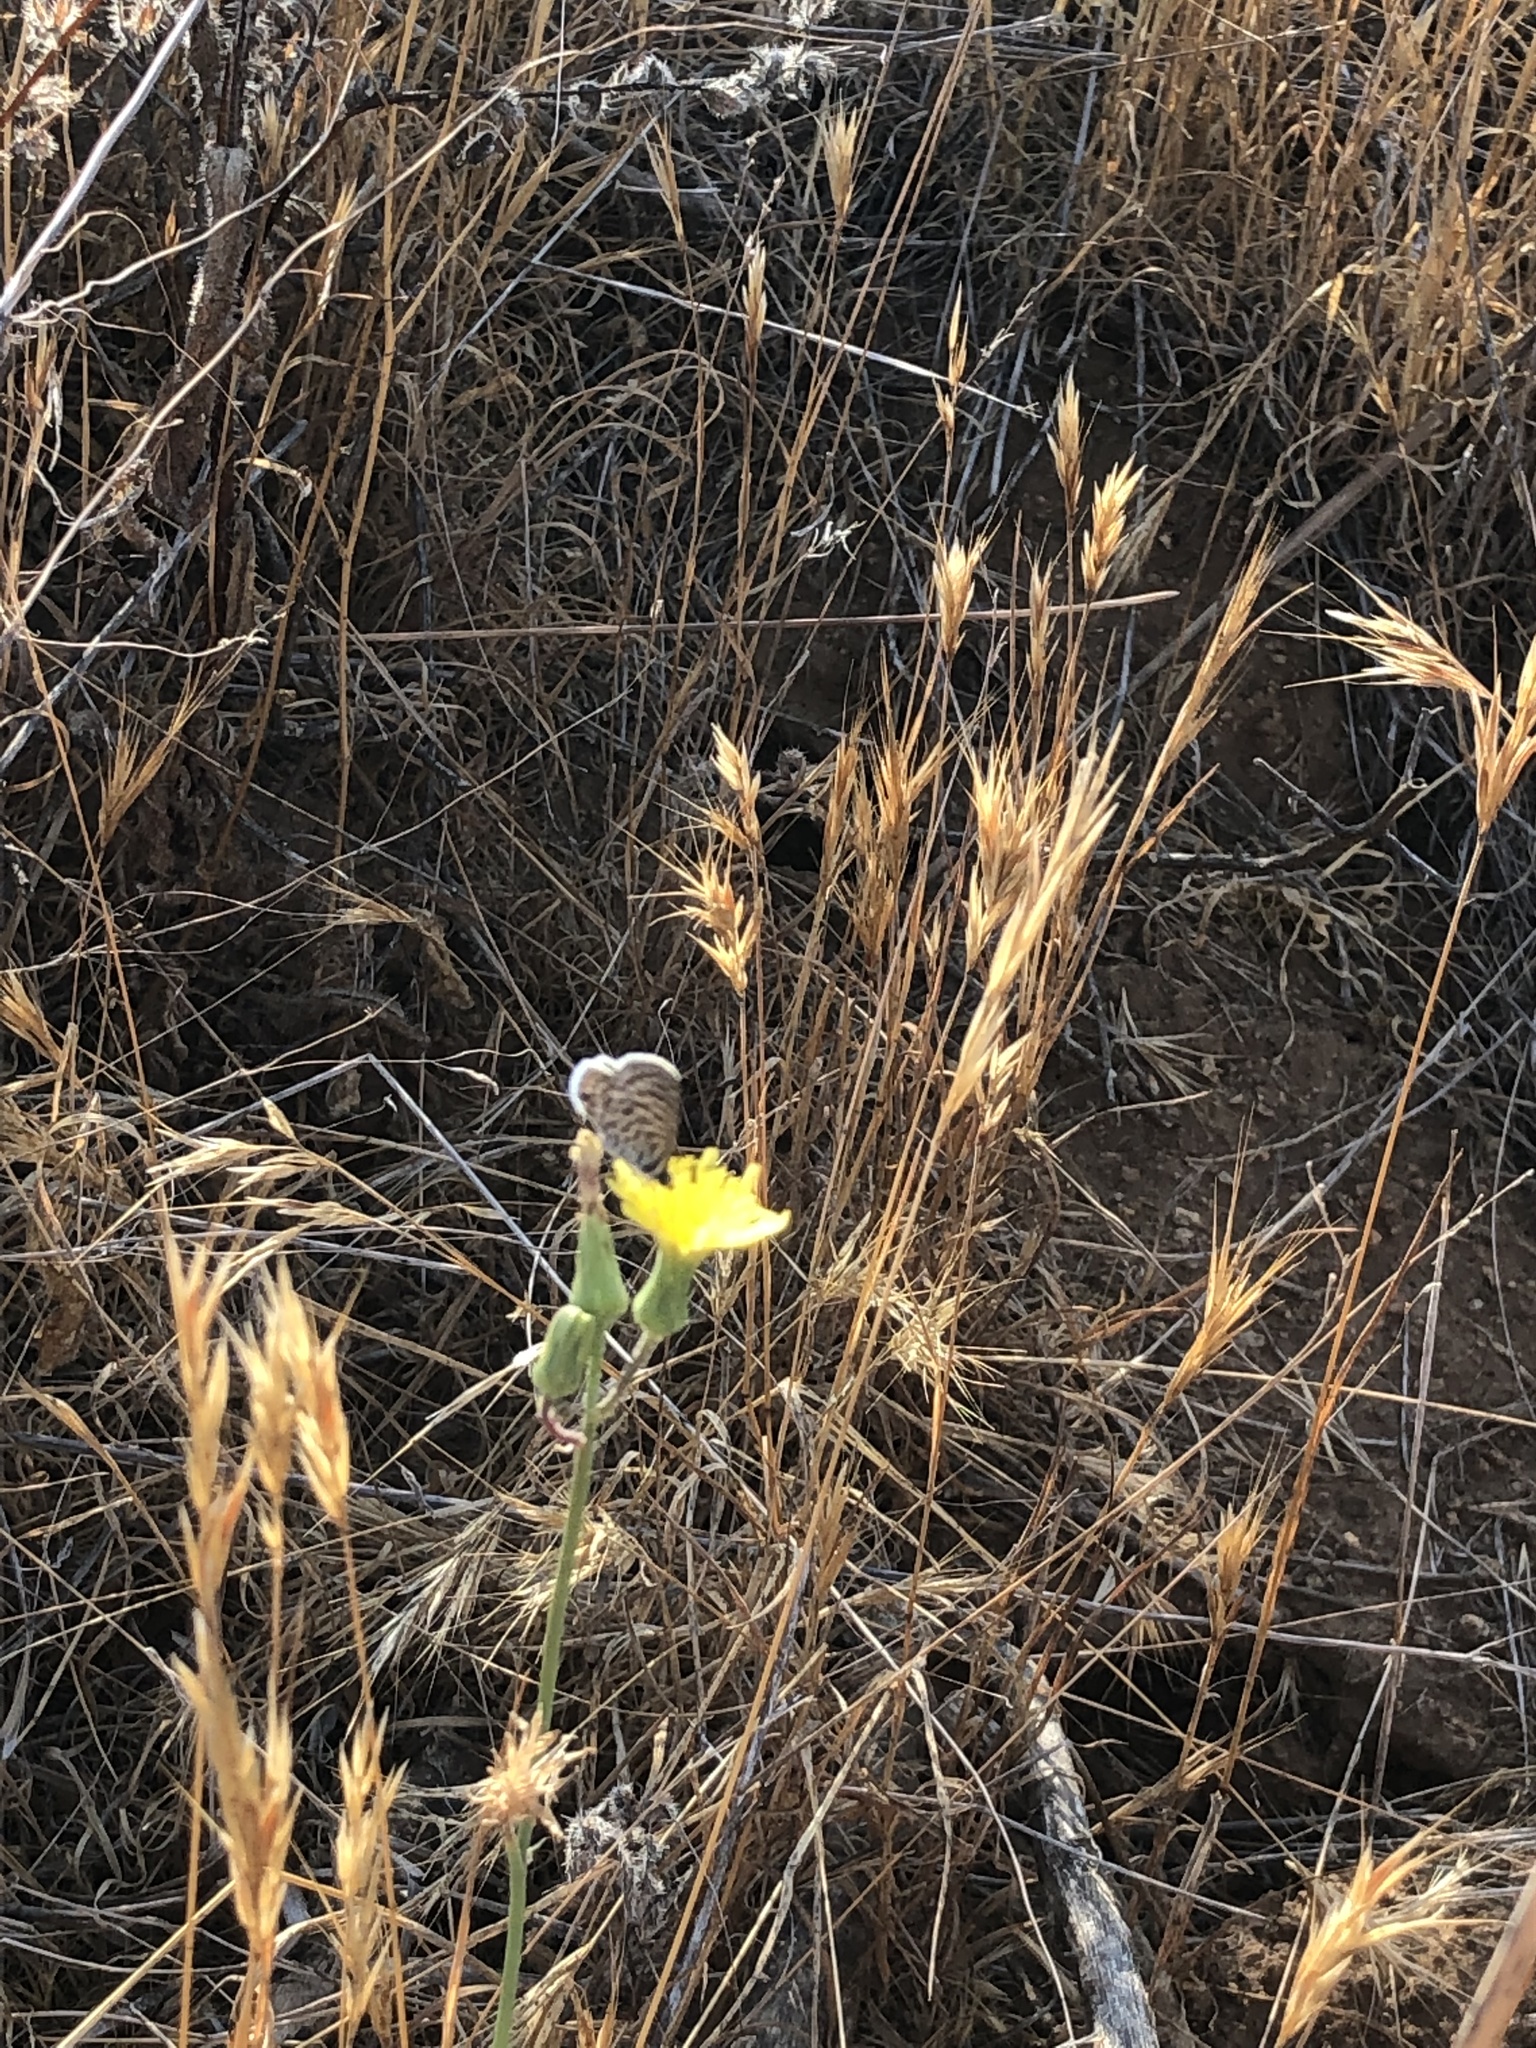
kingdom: Animalia
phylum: Arthropoda
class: Insecta
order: Lepidoptera
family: Lycaenidae
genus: Leptotes
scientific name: Leptotes marina
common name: Marine blue
